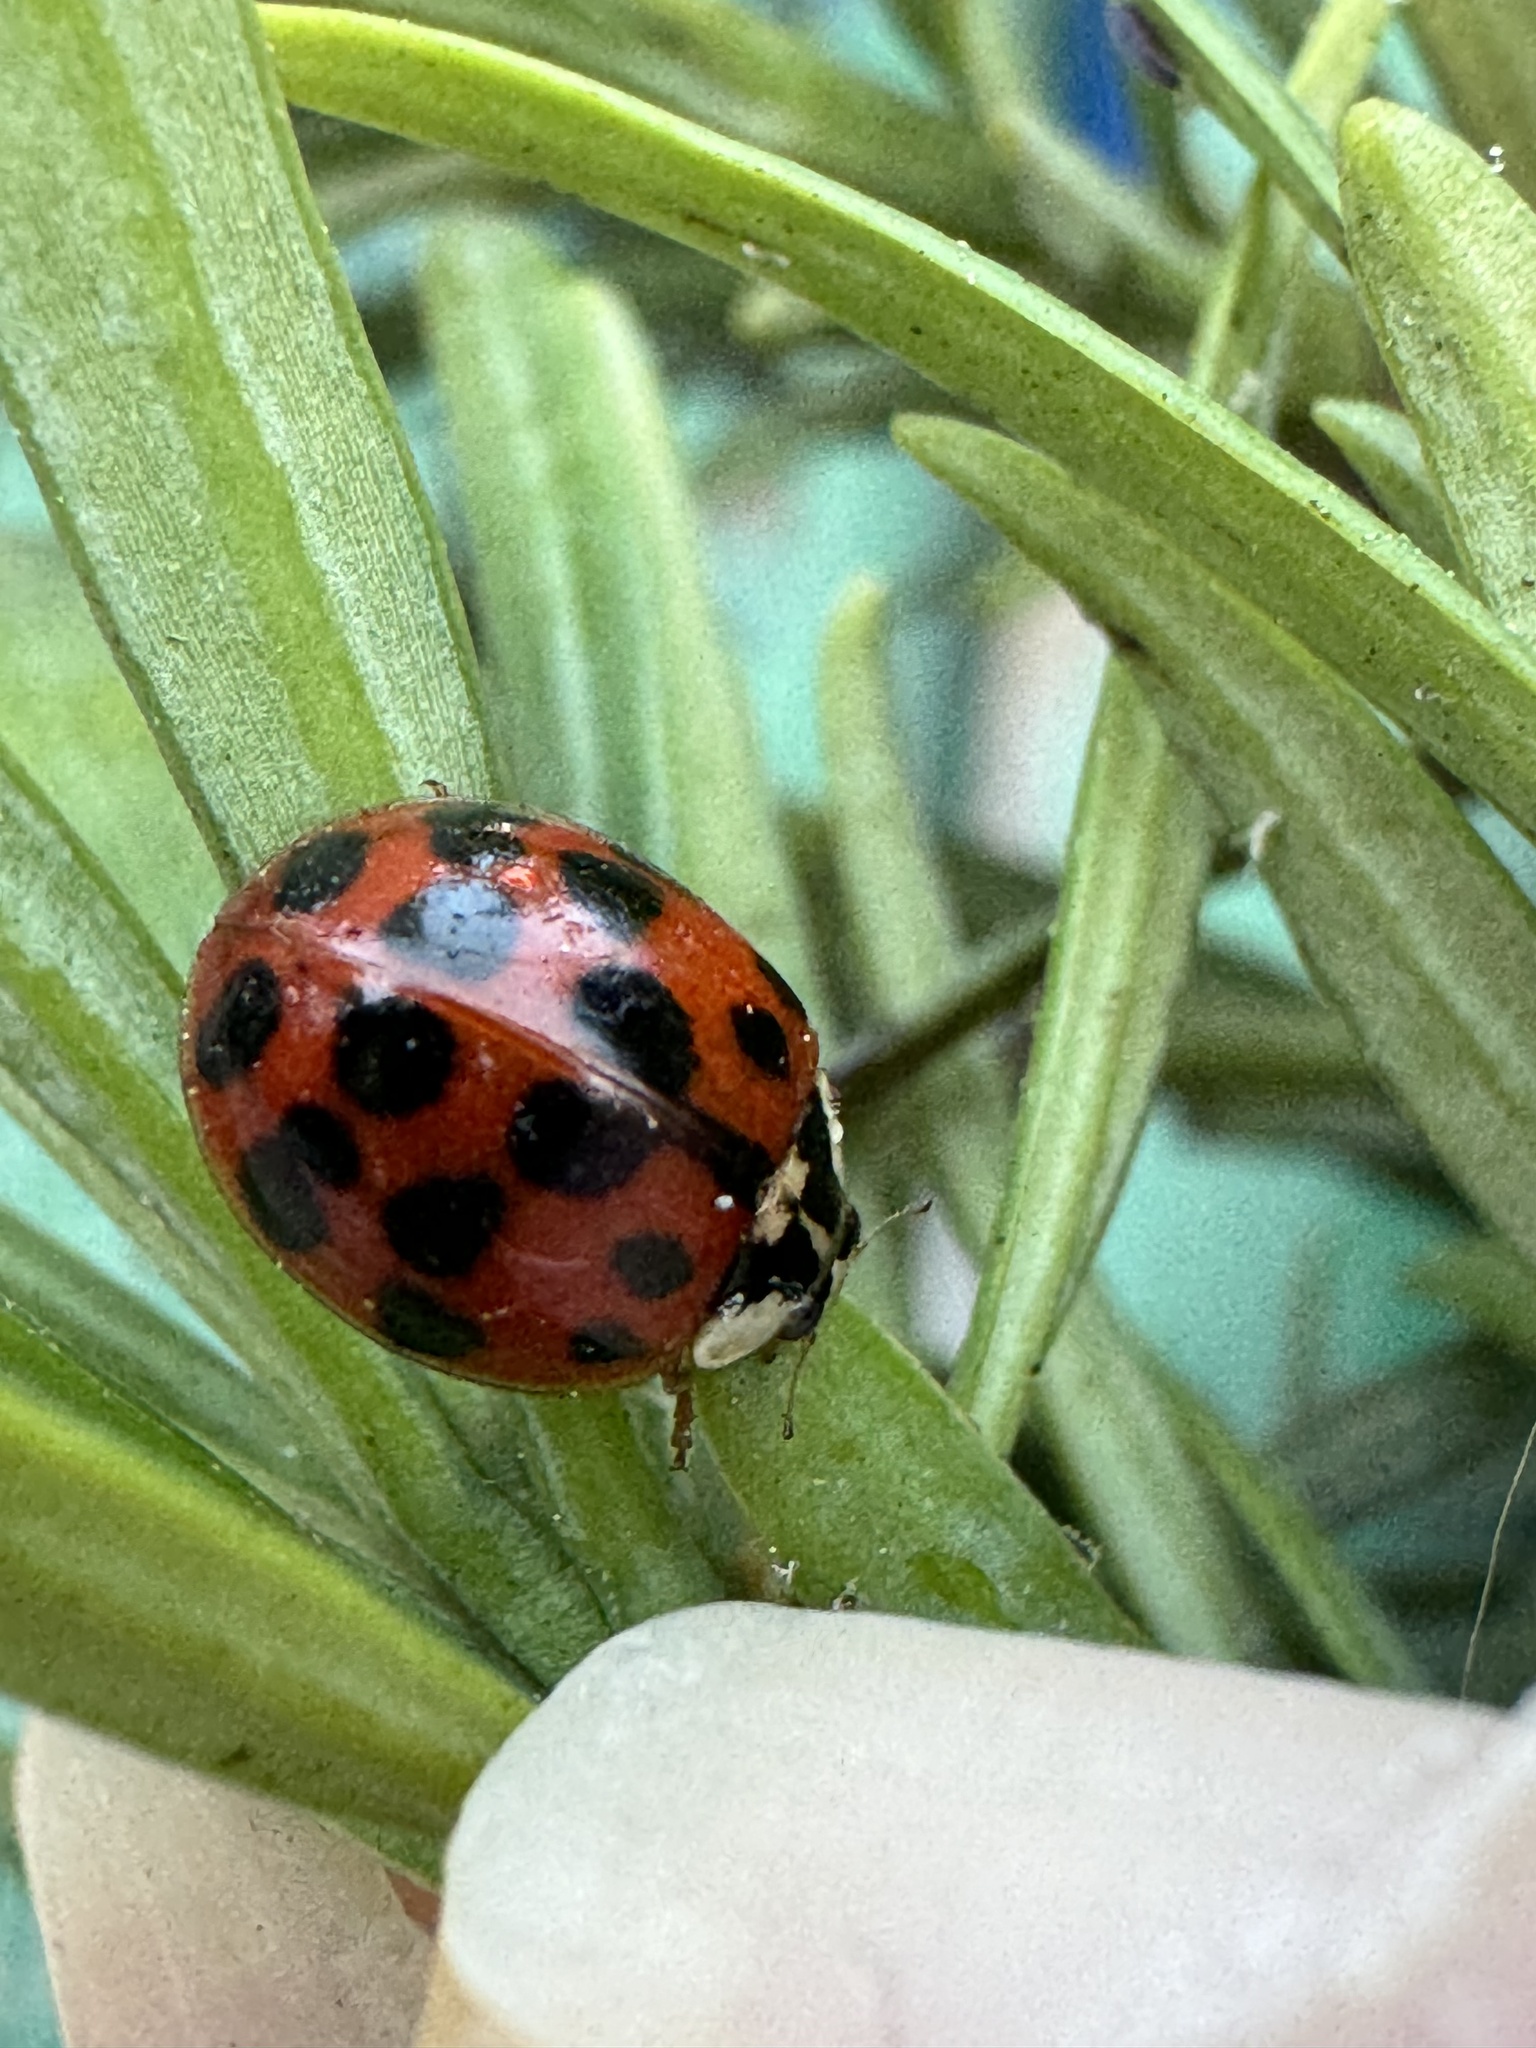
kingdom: Animalia
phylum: Arthropoda
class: Insecta
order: Coleoptera
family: Coccinellidae
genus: Harmonia
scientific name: Harmonia axyridis
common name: Harlequin ladybird
